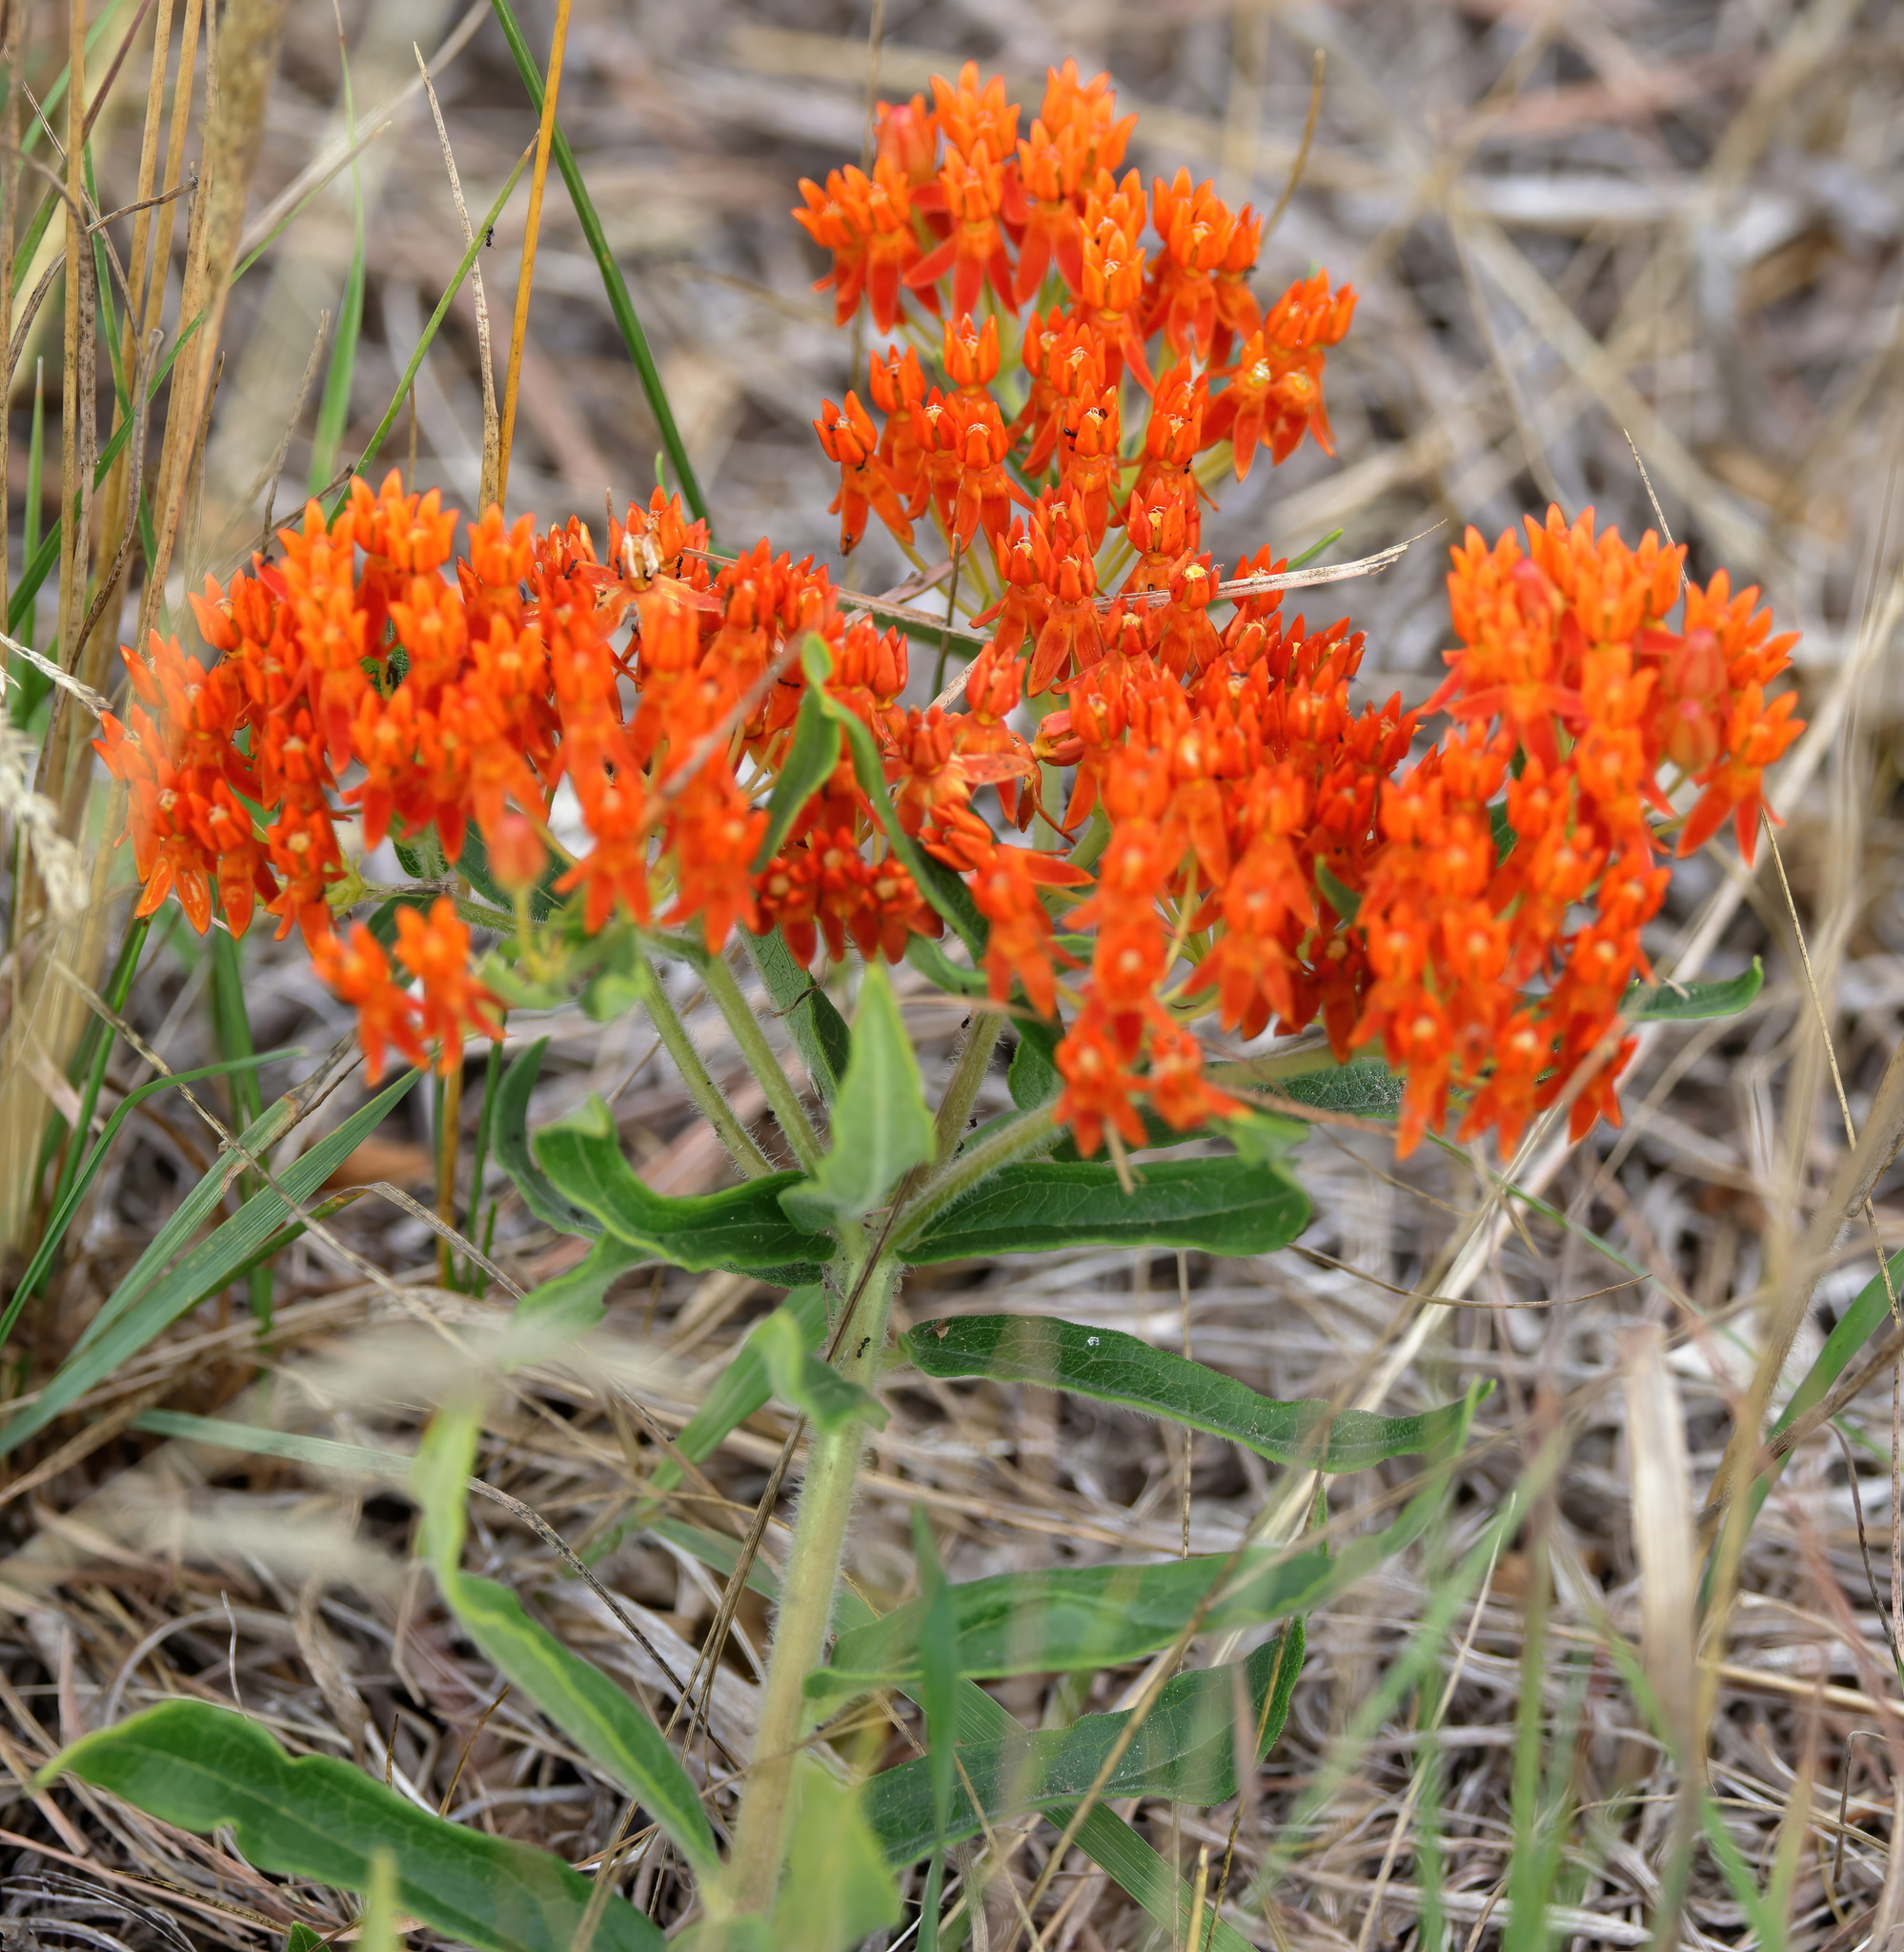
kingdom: Plantae
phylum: Tracheophyta
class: Magnoliopsida
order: Gentianales
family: Apocynaceae
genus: Asclepias
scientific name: Asclepias tuberosa
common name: Butterfly milkweed
